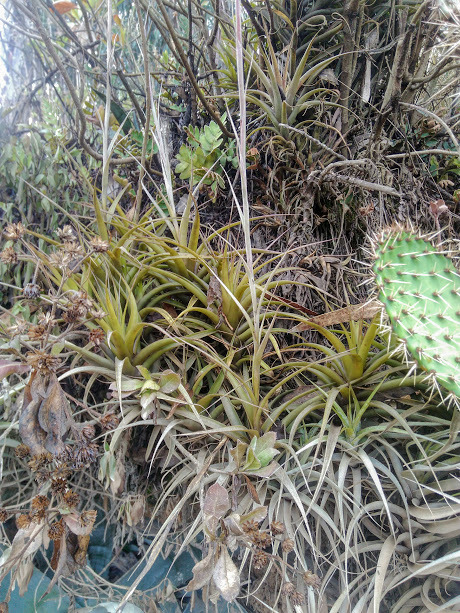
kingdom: Plantae
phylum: Tracheophyta
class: Liliopsida
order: Poales
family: Bromeliaceae
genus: Tillandsia
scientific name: Tillandsia incarnata
